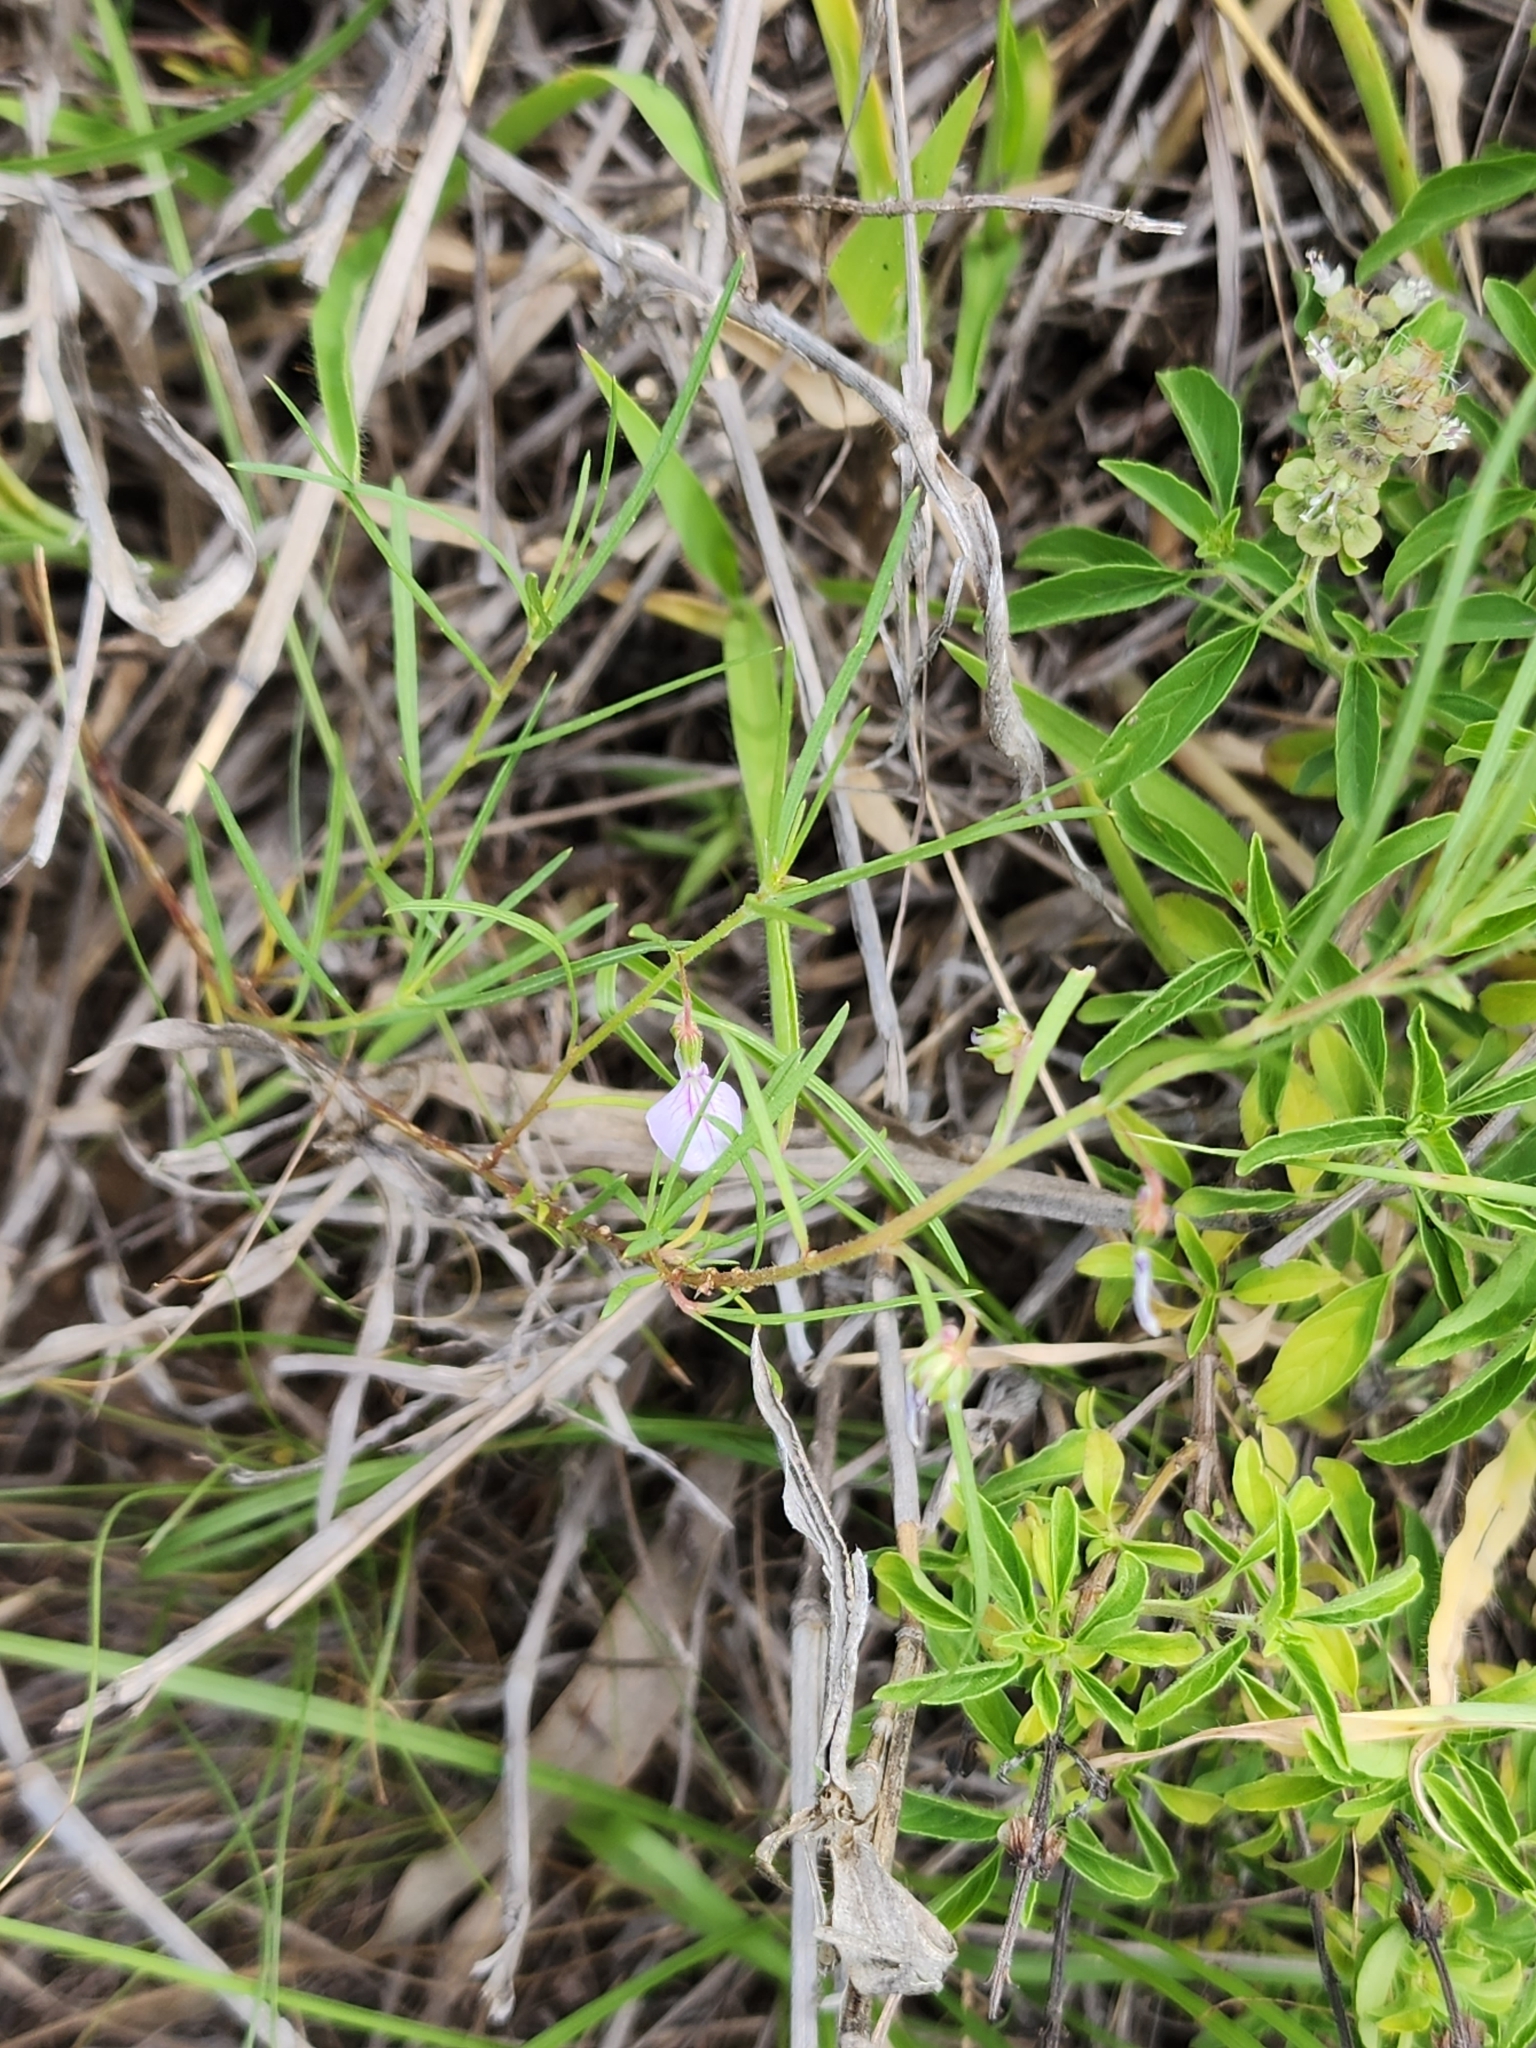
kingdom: Plantae
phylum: Tracheophyta
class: Magnoliopsida
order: Malpighiales
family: Violaceae
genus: Pigea
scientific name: Pigea enneasperma
